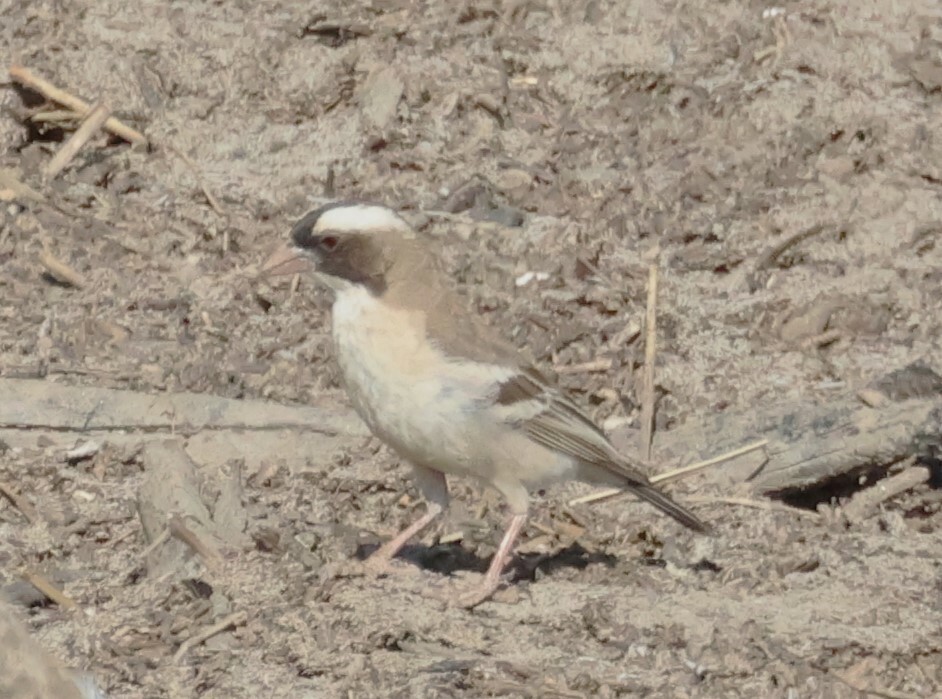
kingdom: Animalia
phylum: Chordata
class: Aves
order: Passeriformes
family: Passeridae
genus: Plocepasser
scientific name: Plocepasser mahali
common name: White-browed sparrow-weaver
